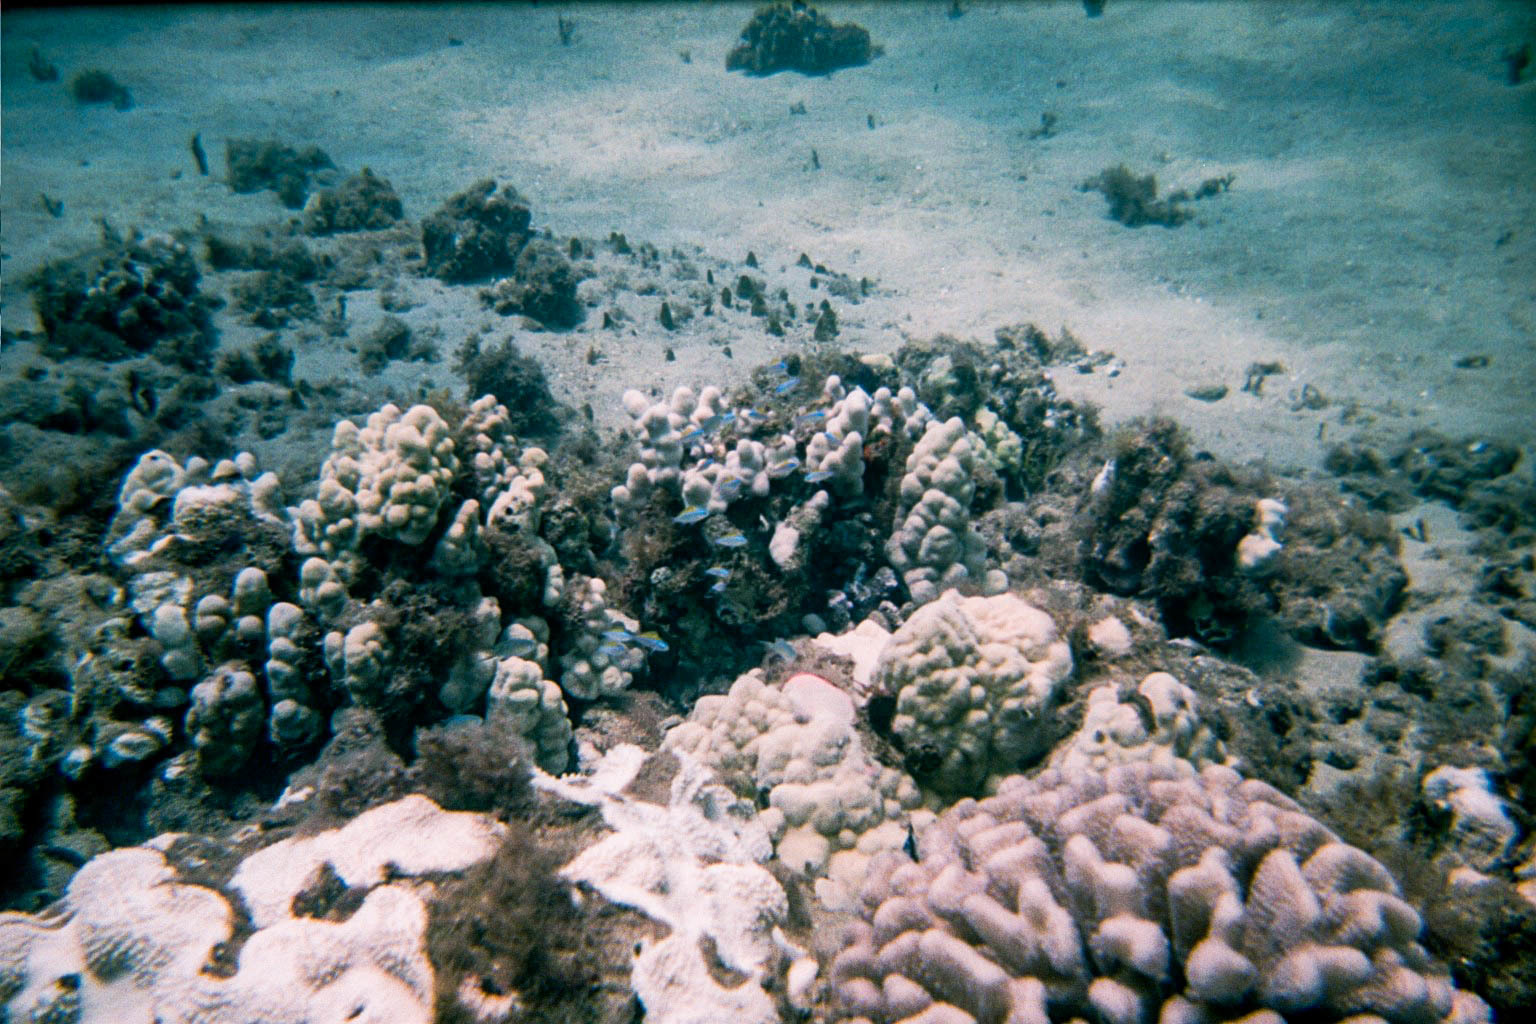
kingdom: Animalia
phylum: Cnidaria
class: Anthozoa
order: Scleractinia
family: Pocilloporidae
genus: Pocillopora
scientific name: Pocillopora meandrina
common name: Cauliflower coral
